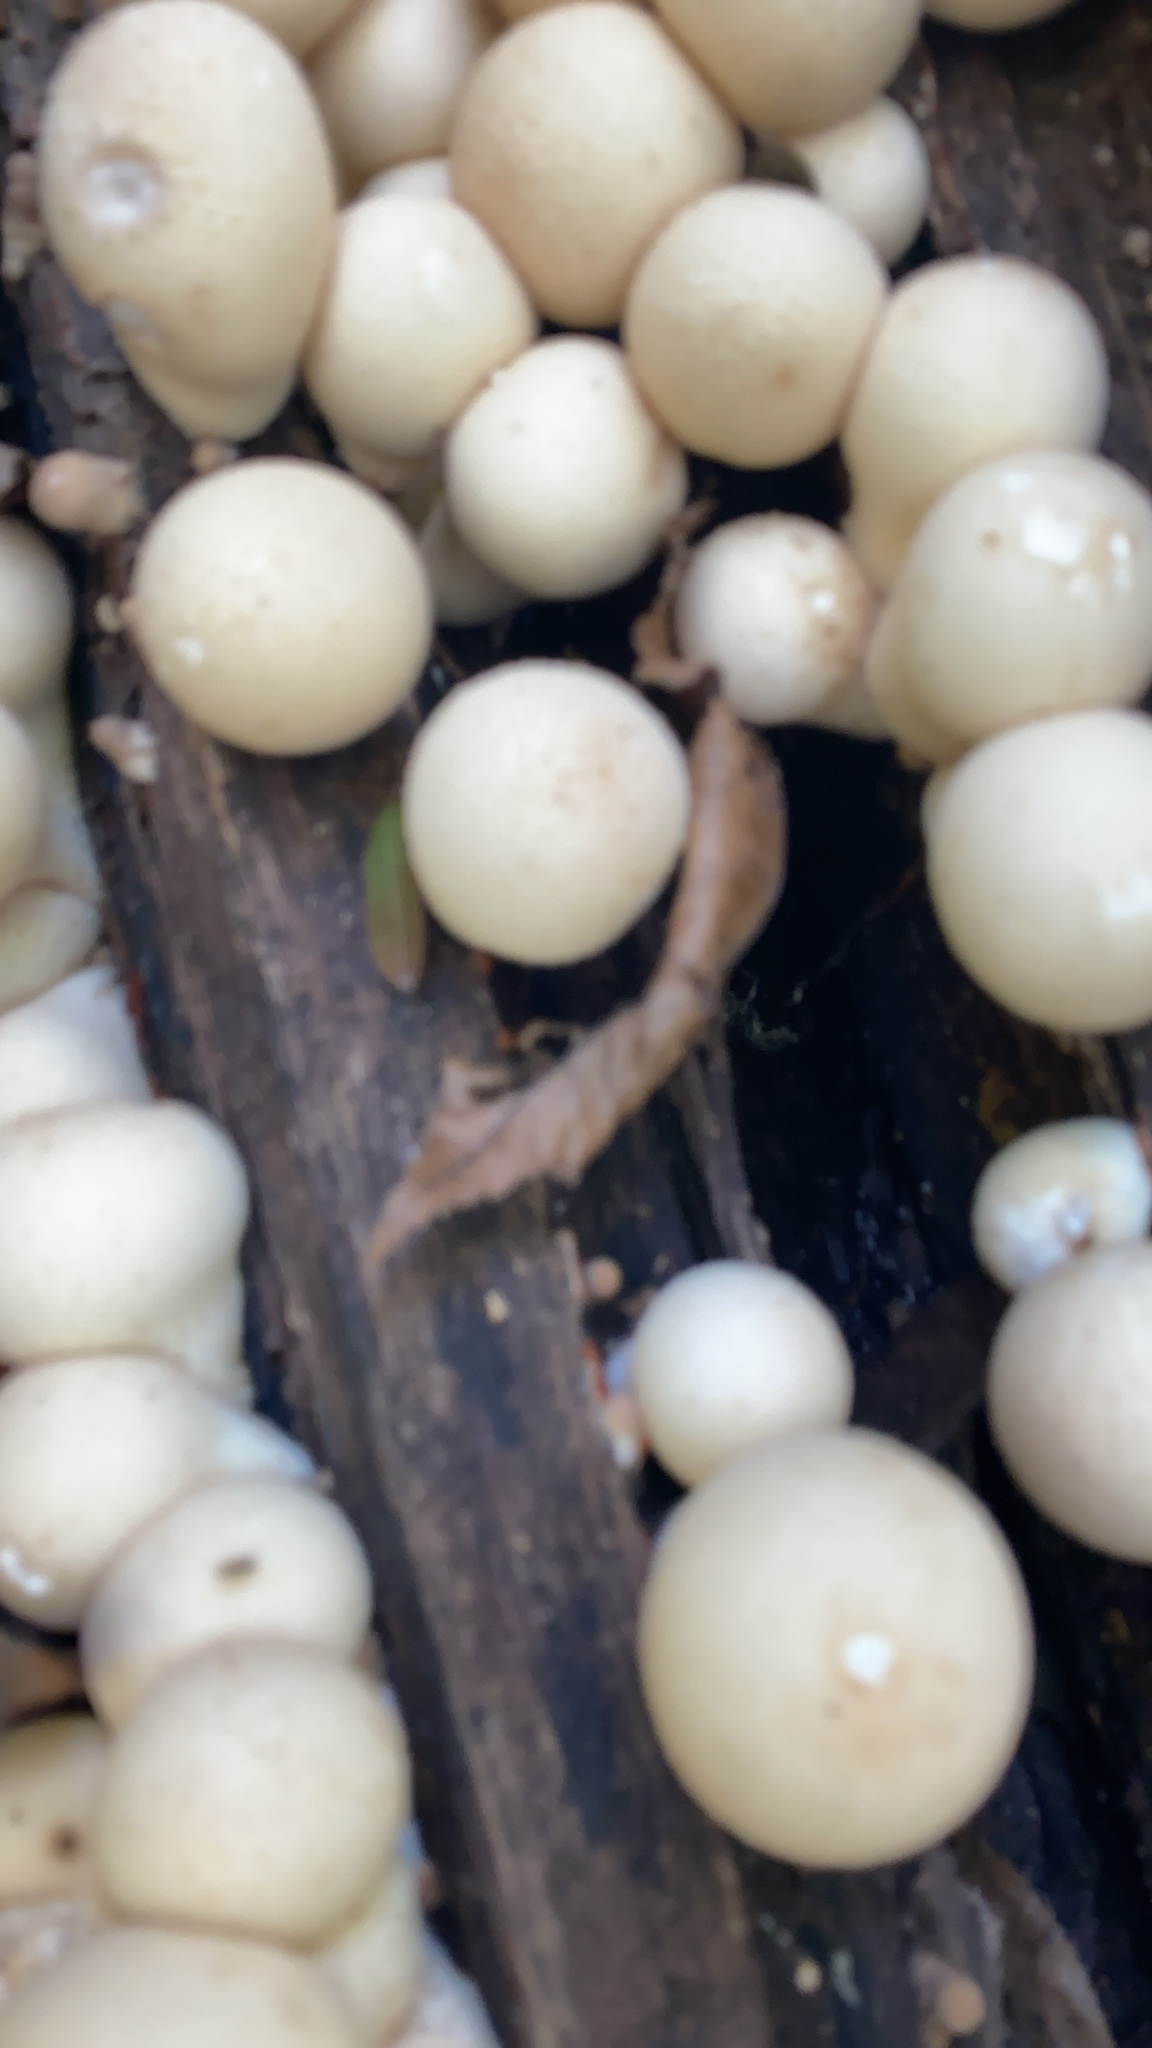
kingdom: Fungi
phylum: Basidiomycota
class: Agaricomycetes
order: Agaricales
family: Lycoperdaceae
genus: Apioperdon
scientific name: Apioperdon pyriforme
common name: Pear-shaped puffball
